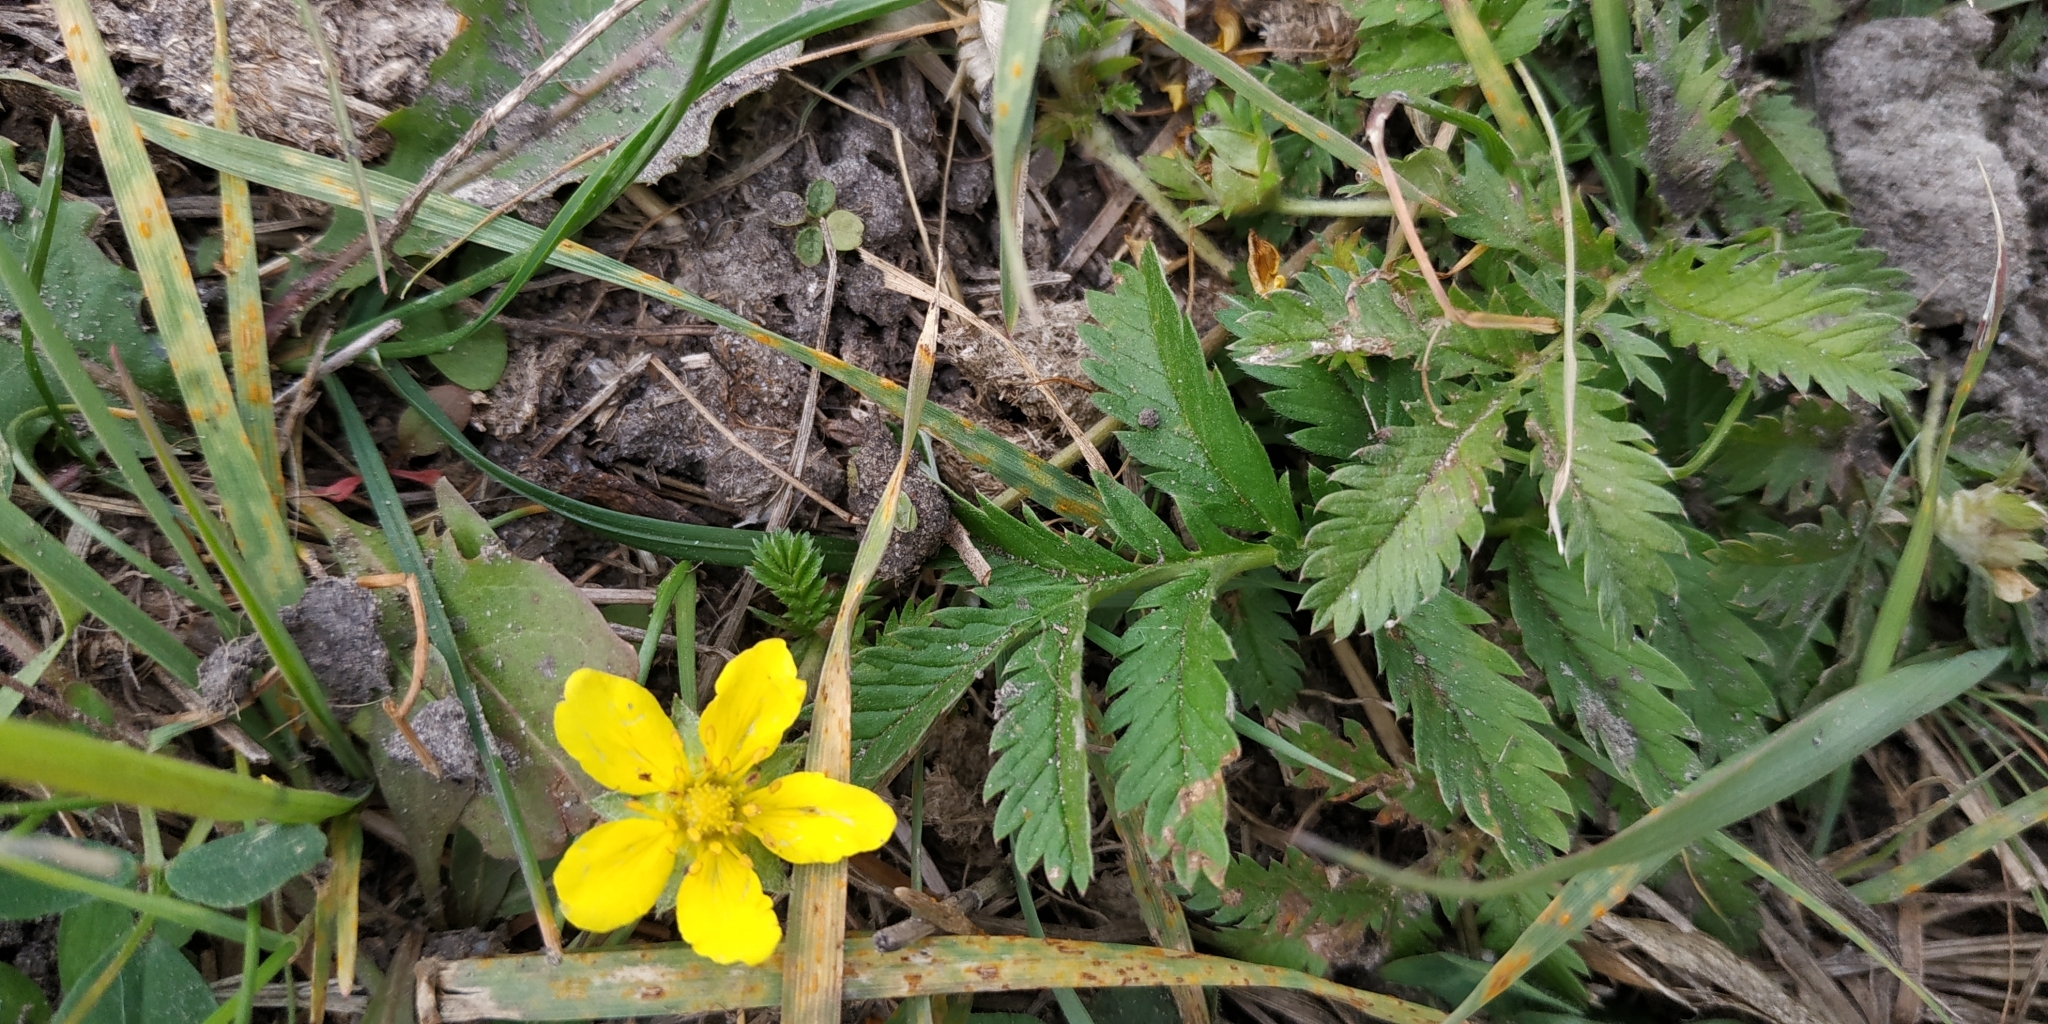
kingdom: Plantae
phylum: Tracheophyta
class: Magnoliopsida
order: Rosales
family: Rosaceae
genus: Argentina
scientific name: Argentina anserina
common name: Common silverweed
